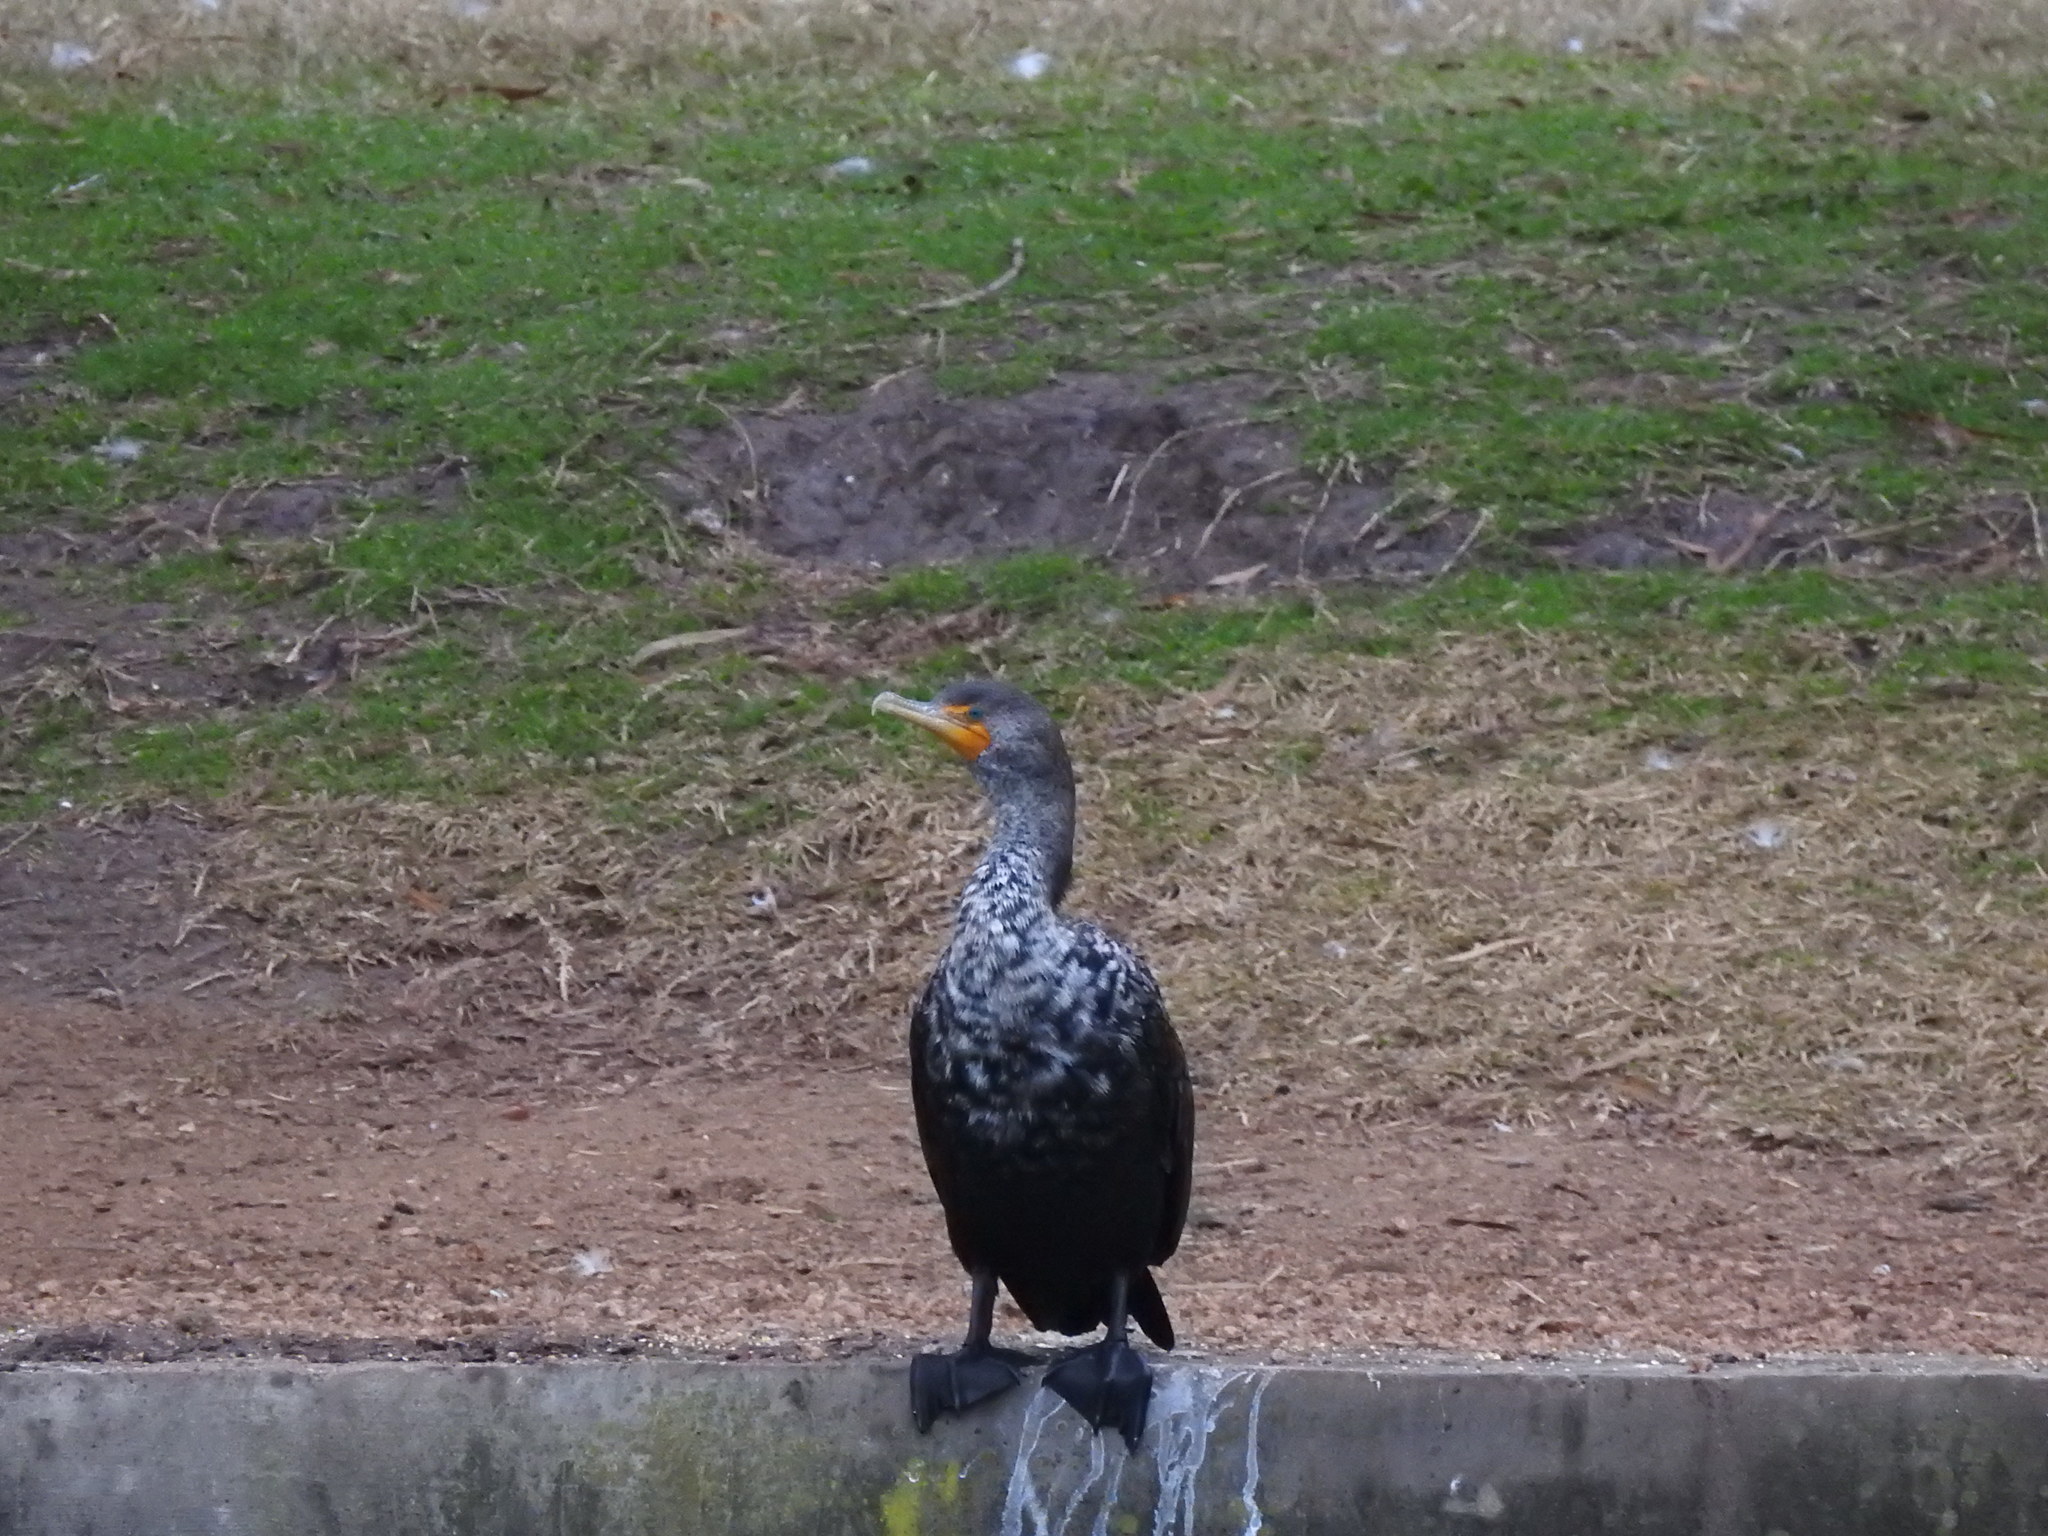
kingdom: Animalia
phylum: Chordata
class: Aves
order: Suliformes
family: Phalacrocoracidae
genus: Phalacrocorax
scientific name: Phalacrocorax auritus
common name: Double-crested cormorant
